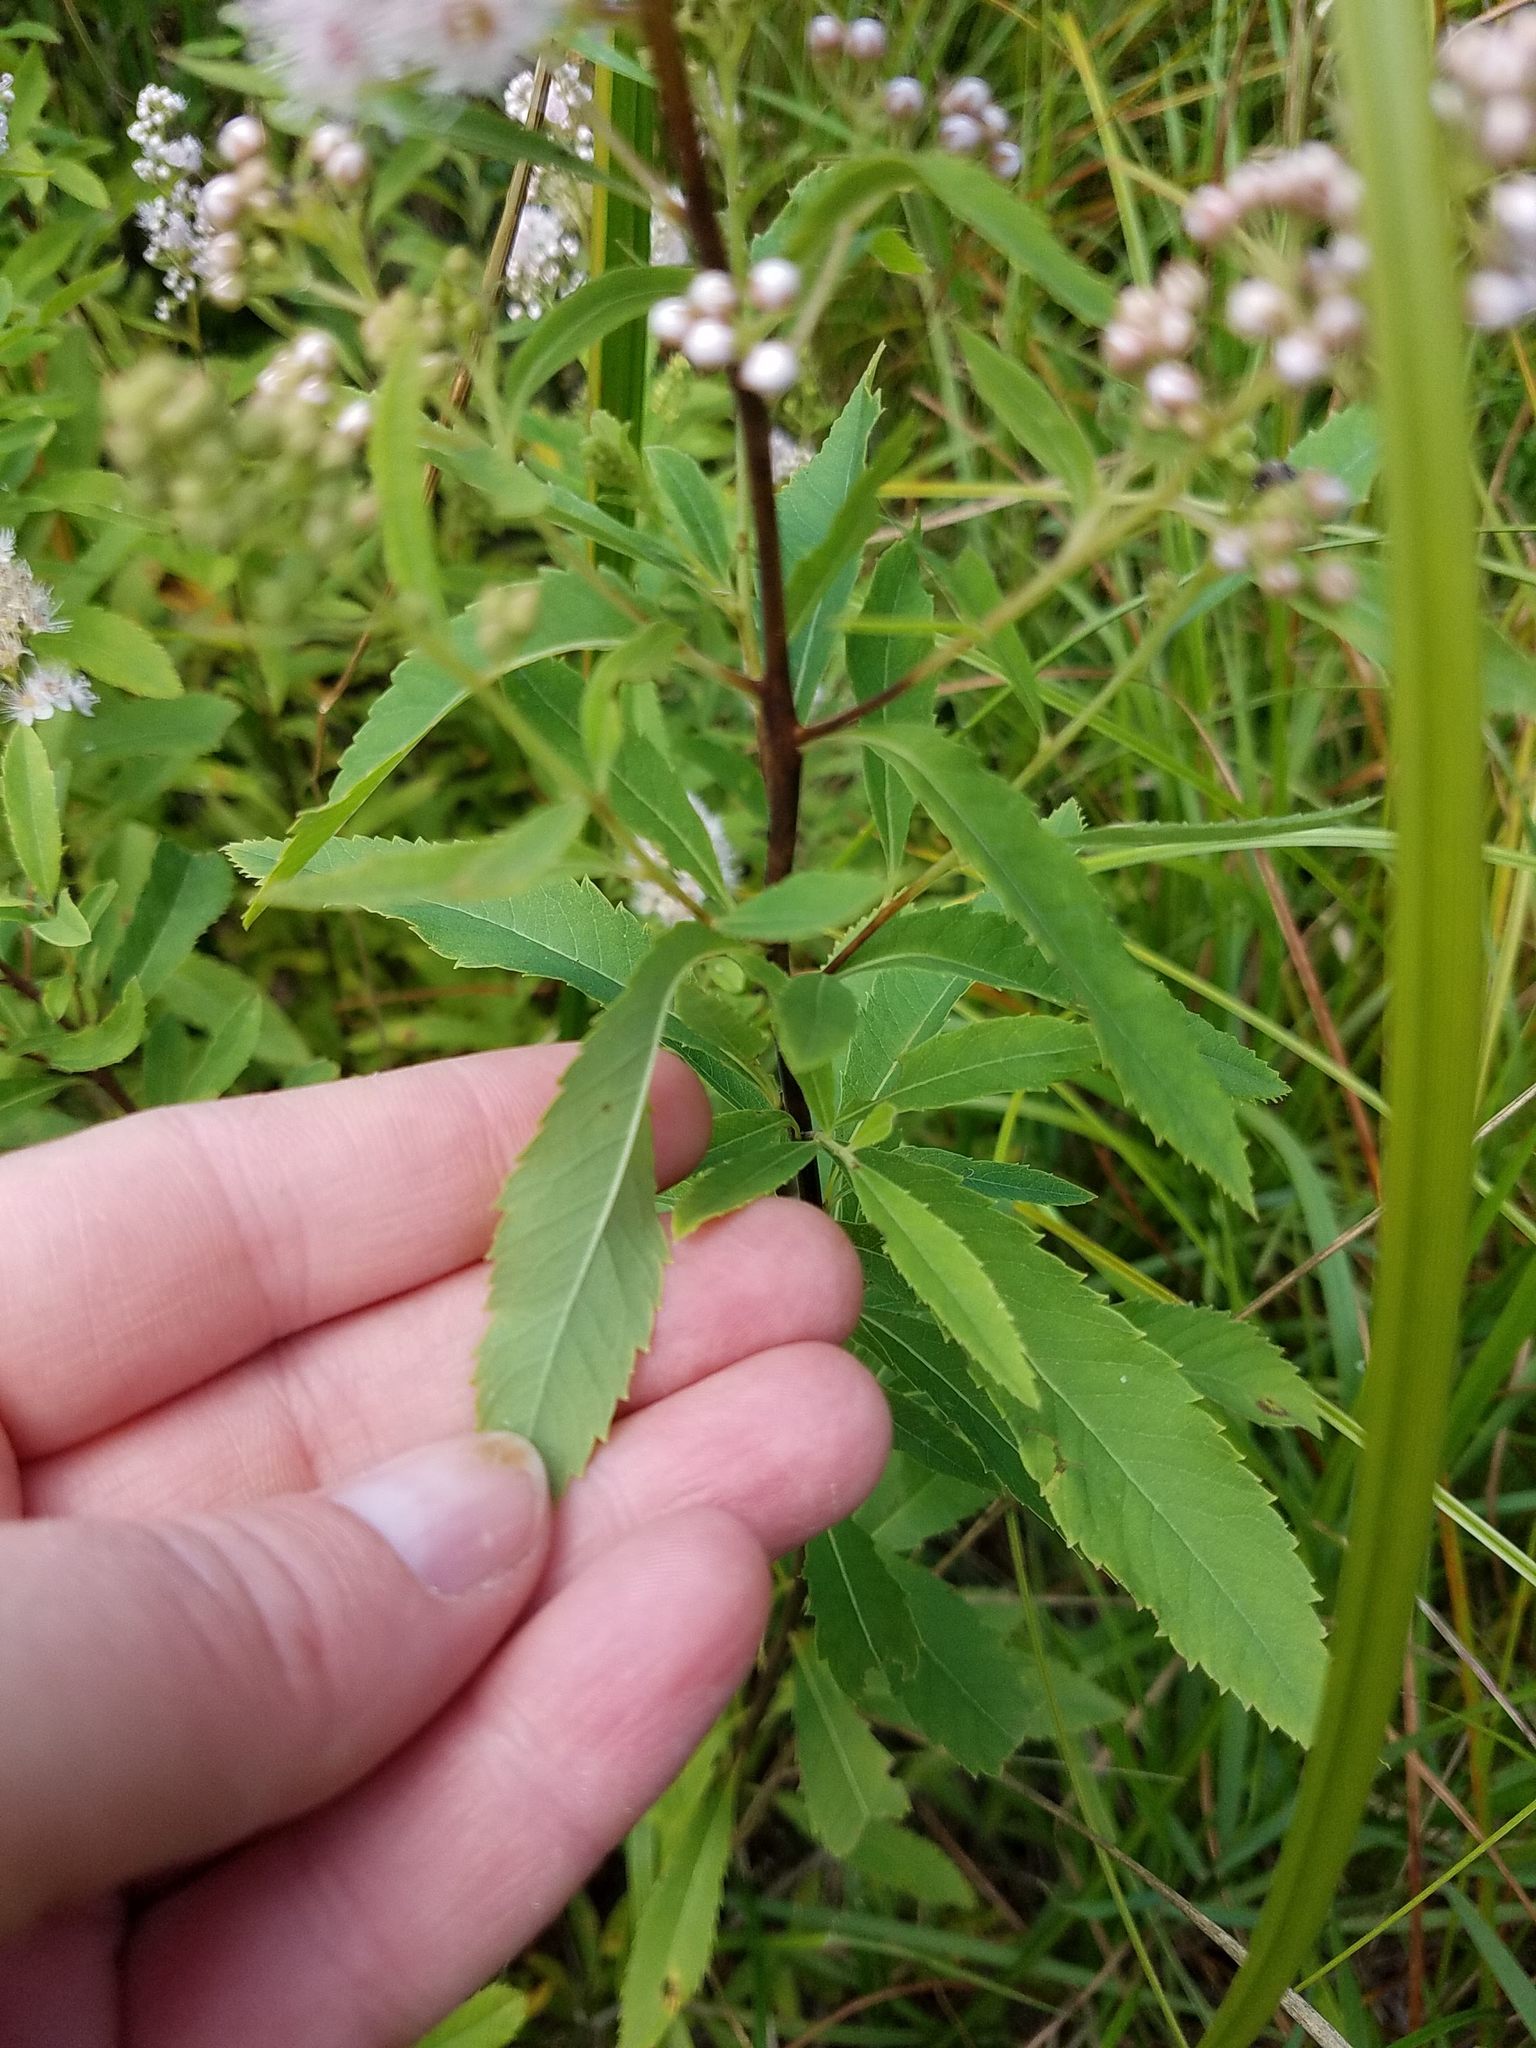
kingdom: Plantae
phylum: Tracheophyta
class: Magnoliopsida
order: Rosales
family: Rosaceae
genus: Spiraea
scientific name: Spiraea alba
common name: Pale bridewort
